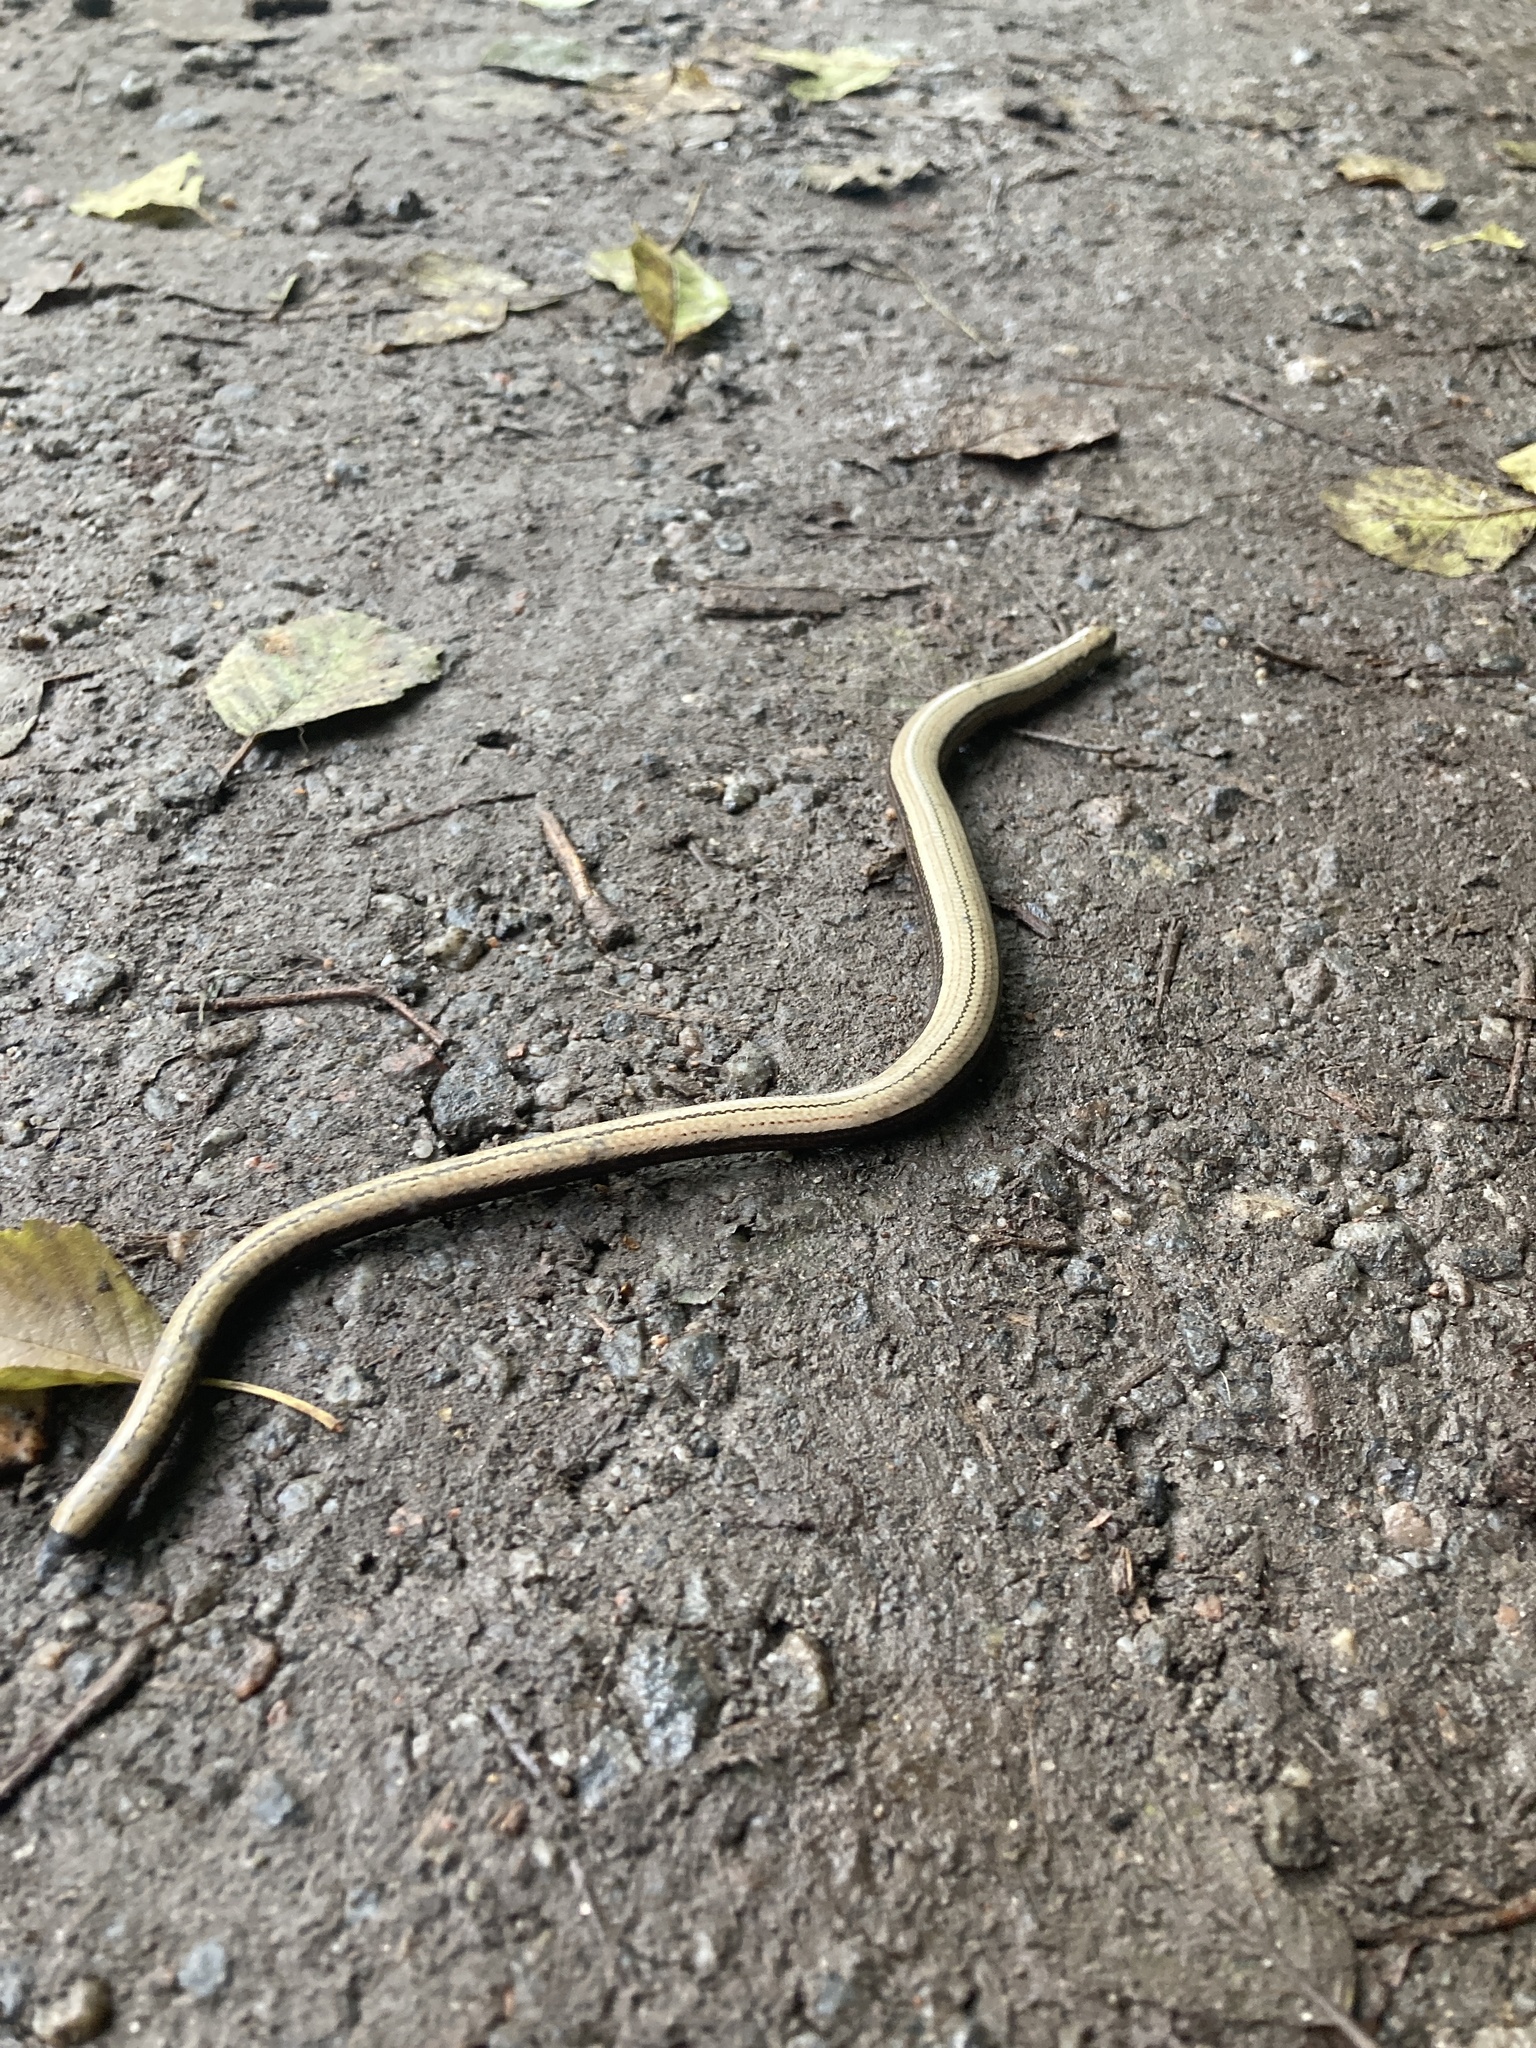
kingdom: Animalia
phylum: Chordata
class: Squamata
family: Anguidae
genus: Anguis
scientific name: Anguis fragilis
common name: Slow worm
